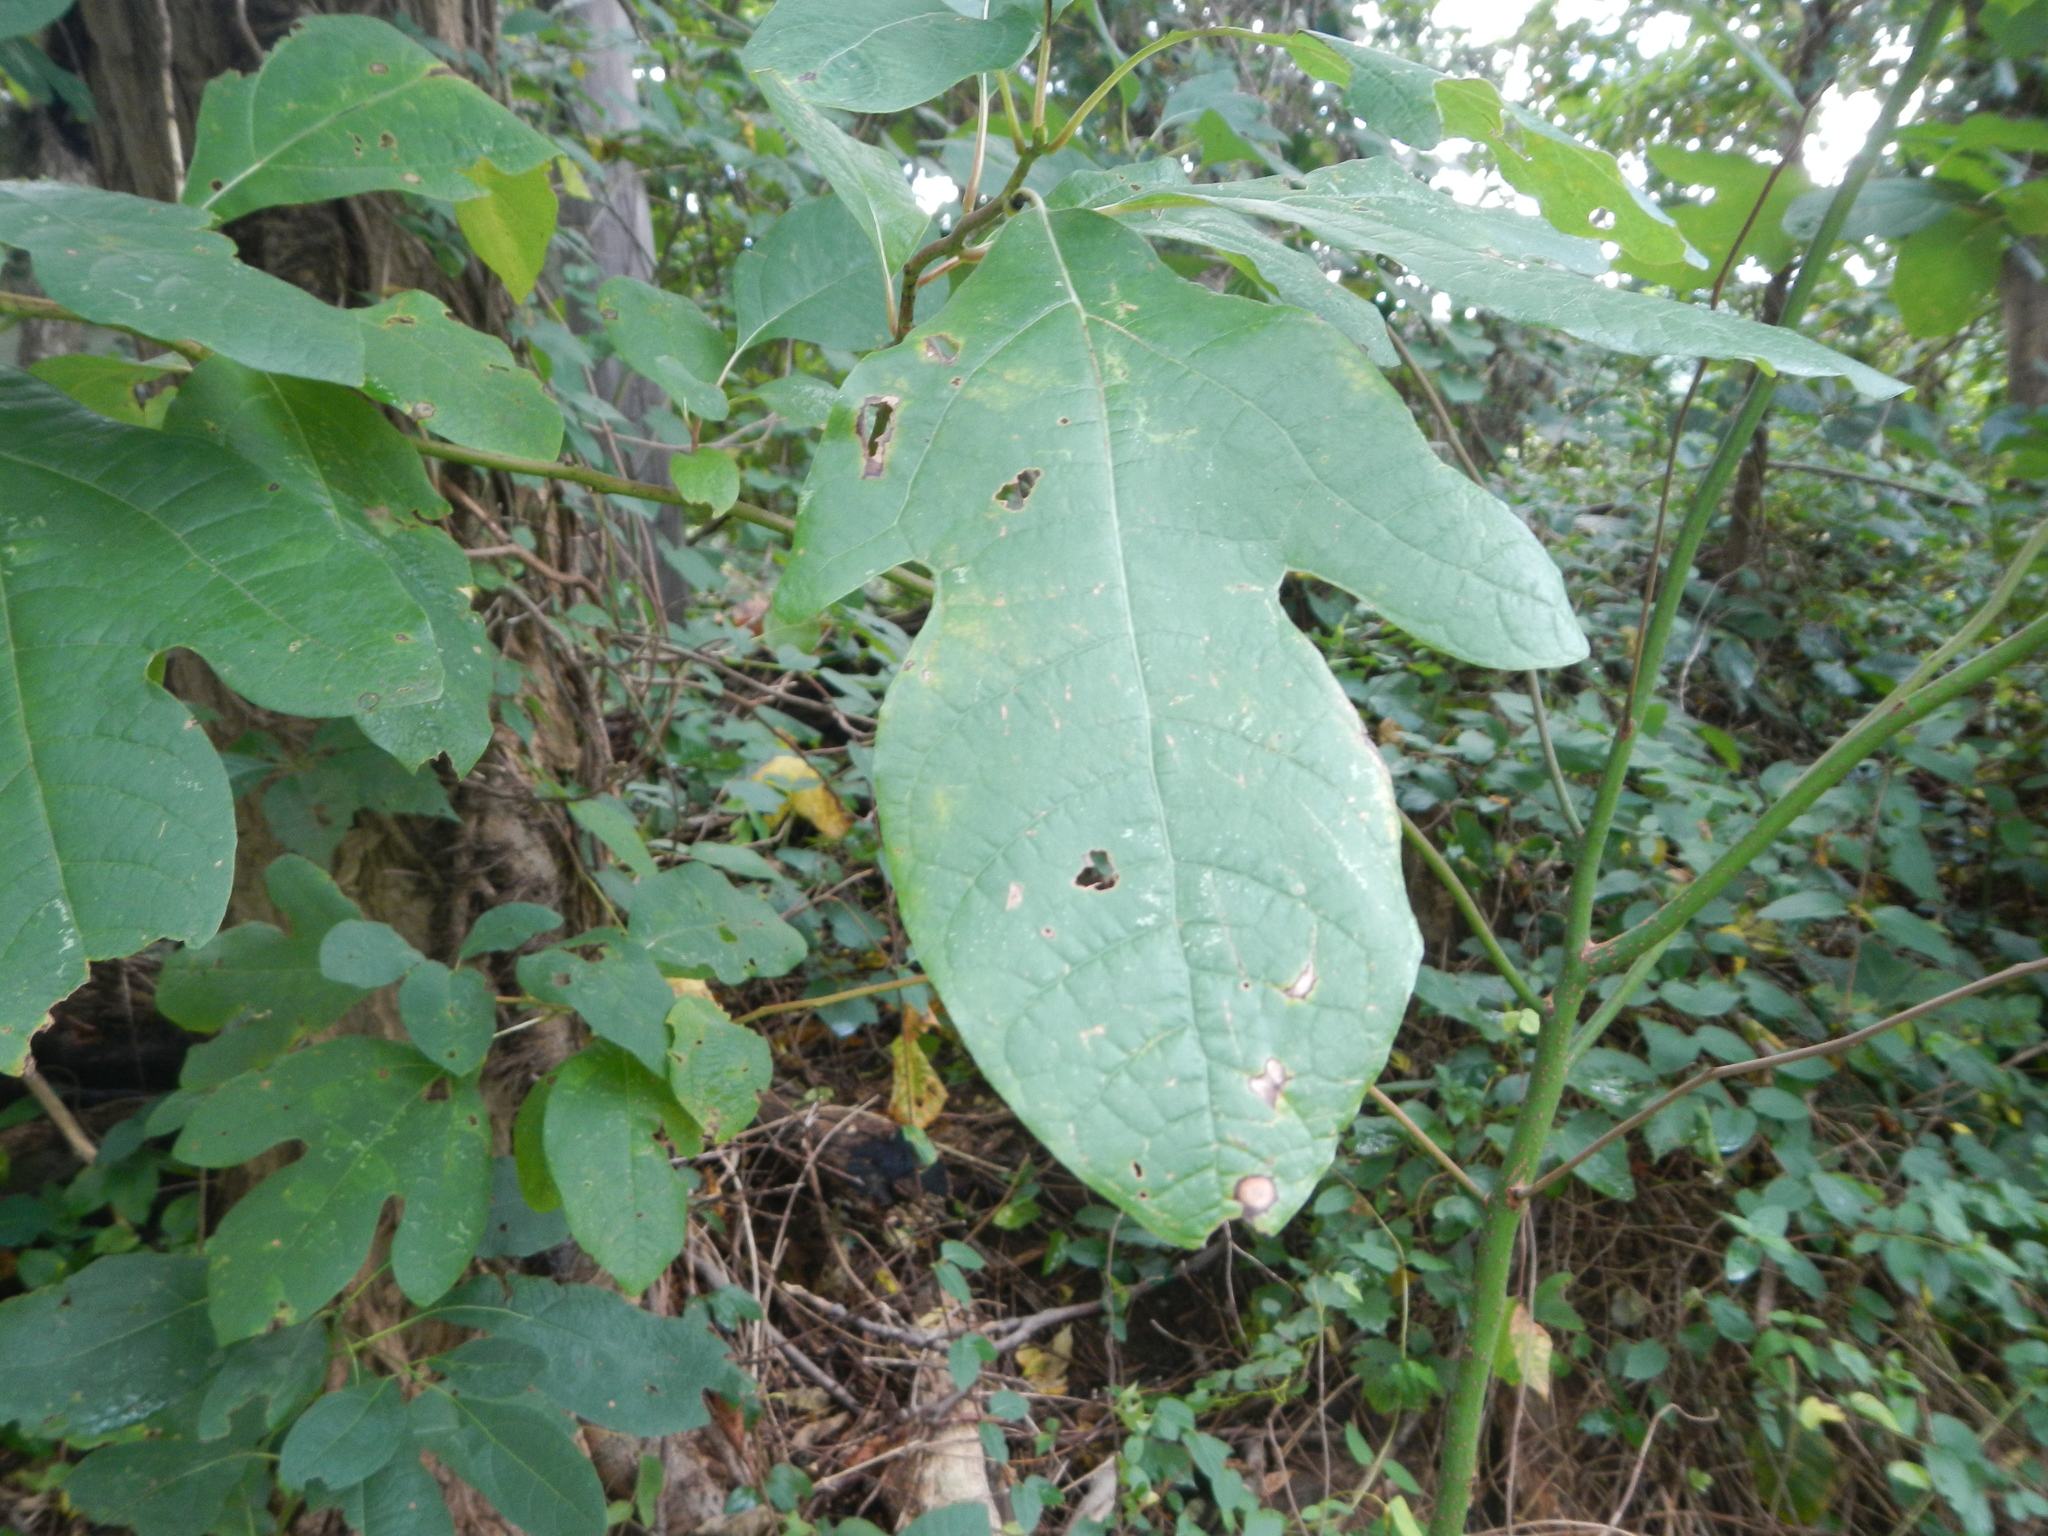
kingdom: Plantae
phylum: Tracheophyta
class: Magnoliopsida
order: Laurales
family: Lauraceae
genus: Sassafras
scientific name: Sassafras albidum
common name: Sassafras
